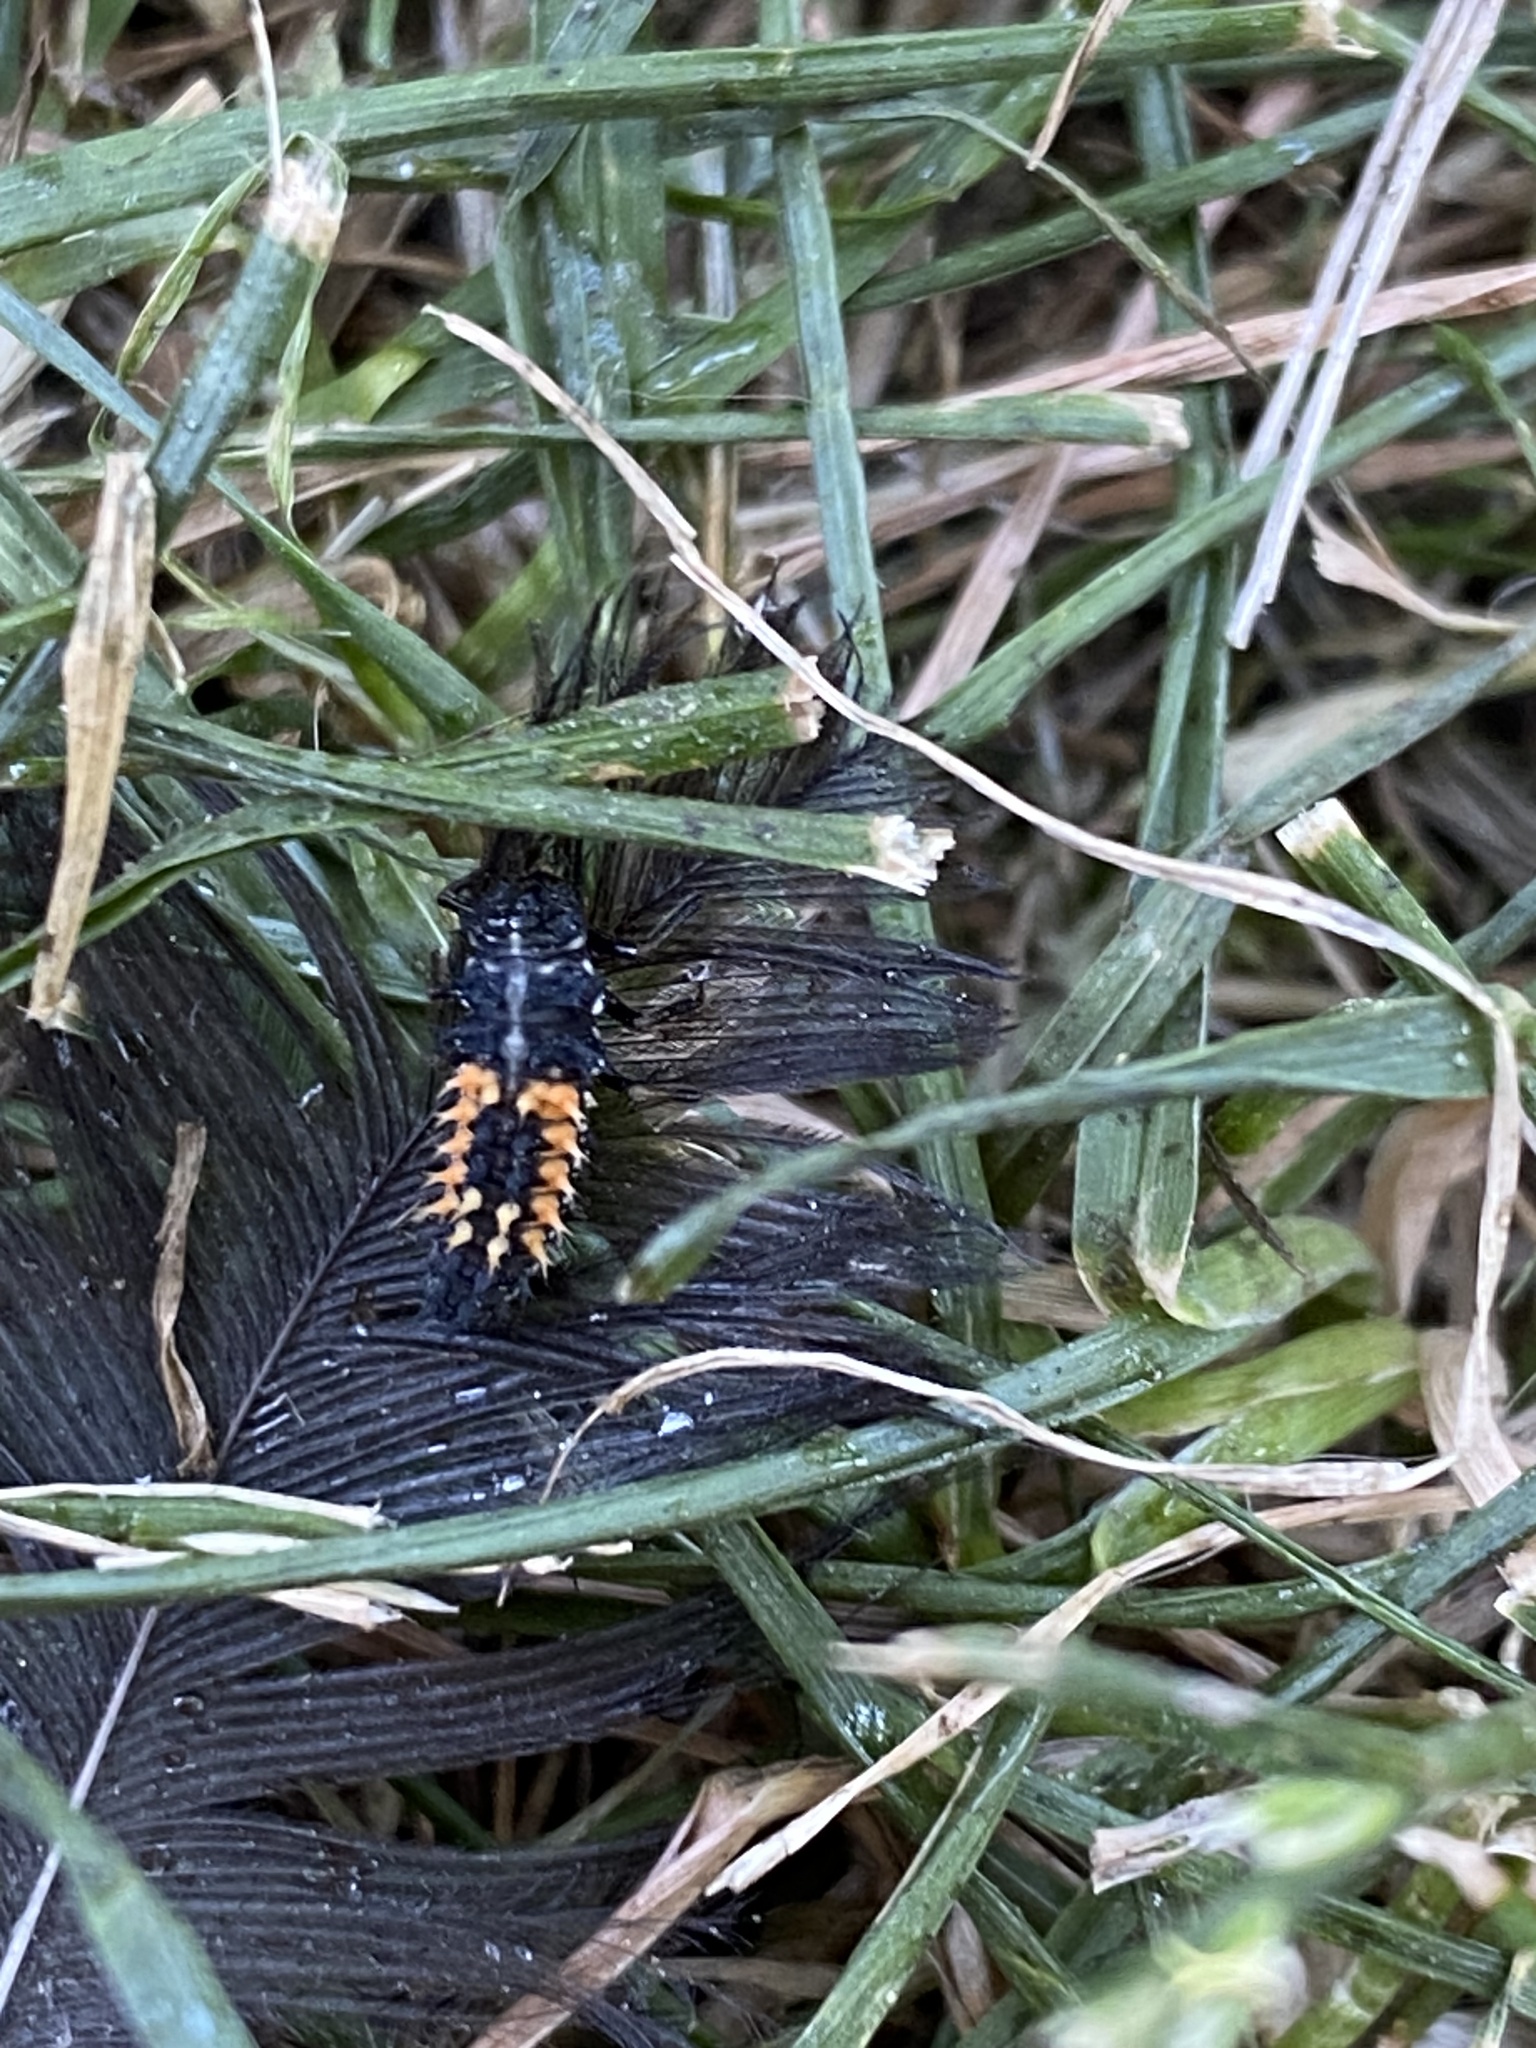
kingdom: Animalia
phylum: Arthropoda
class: Insecta
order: Coleoptera
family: Coccinellidae
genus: Harmonia
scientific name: Harmonia axyridis
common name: Harlequin ladybird
